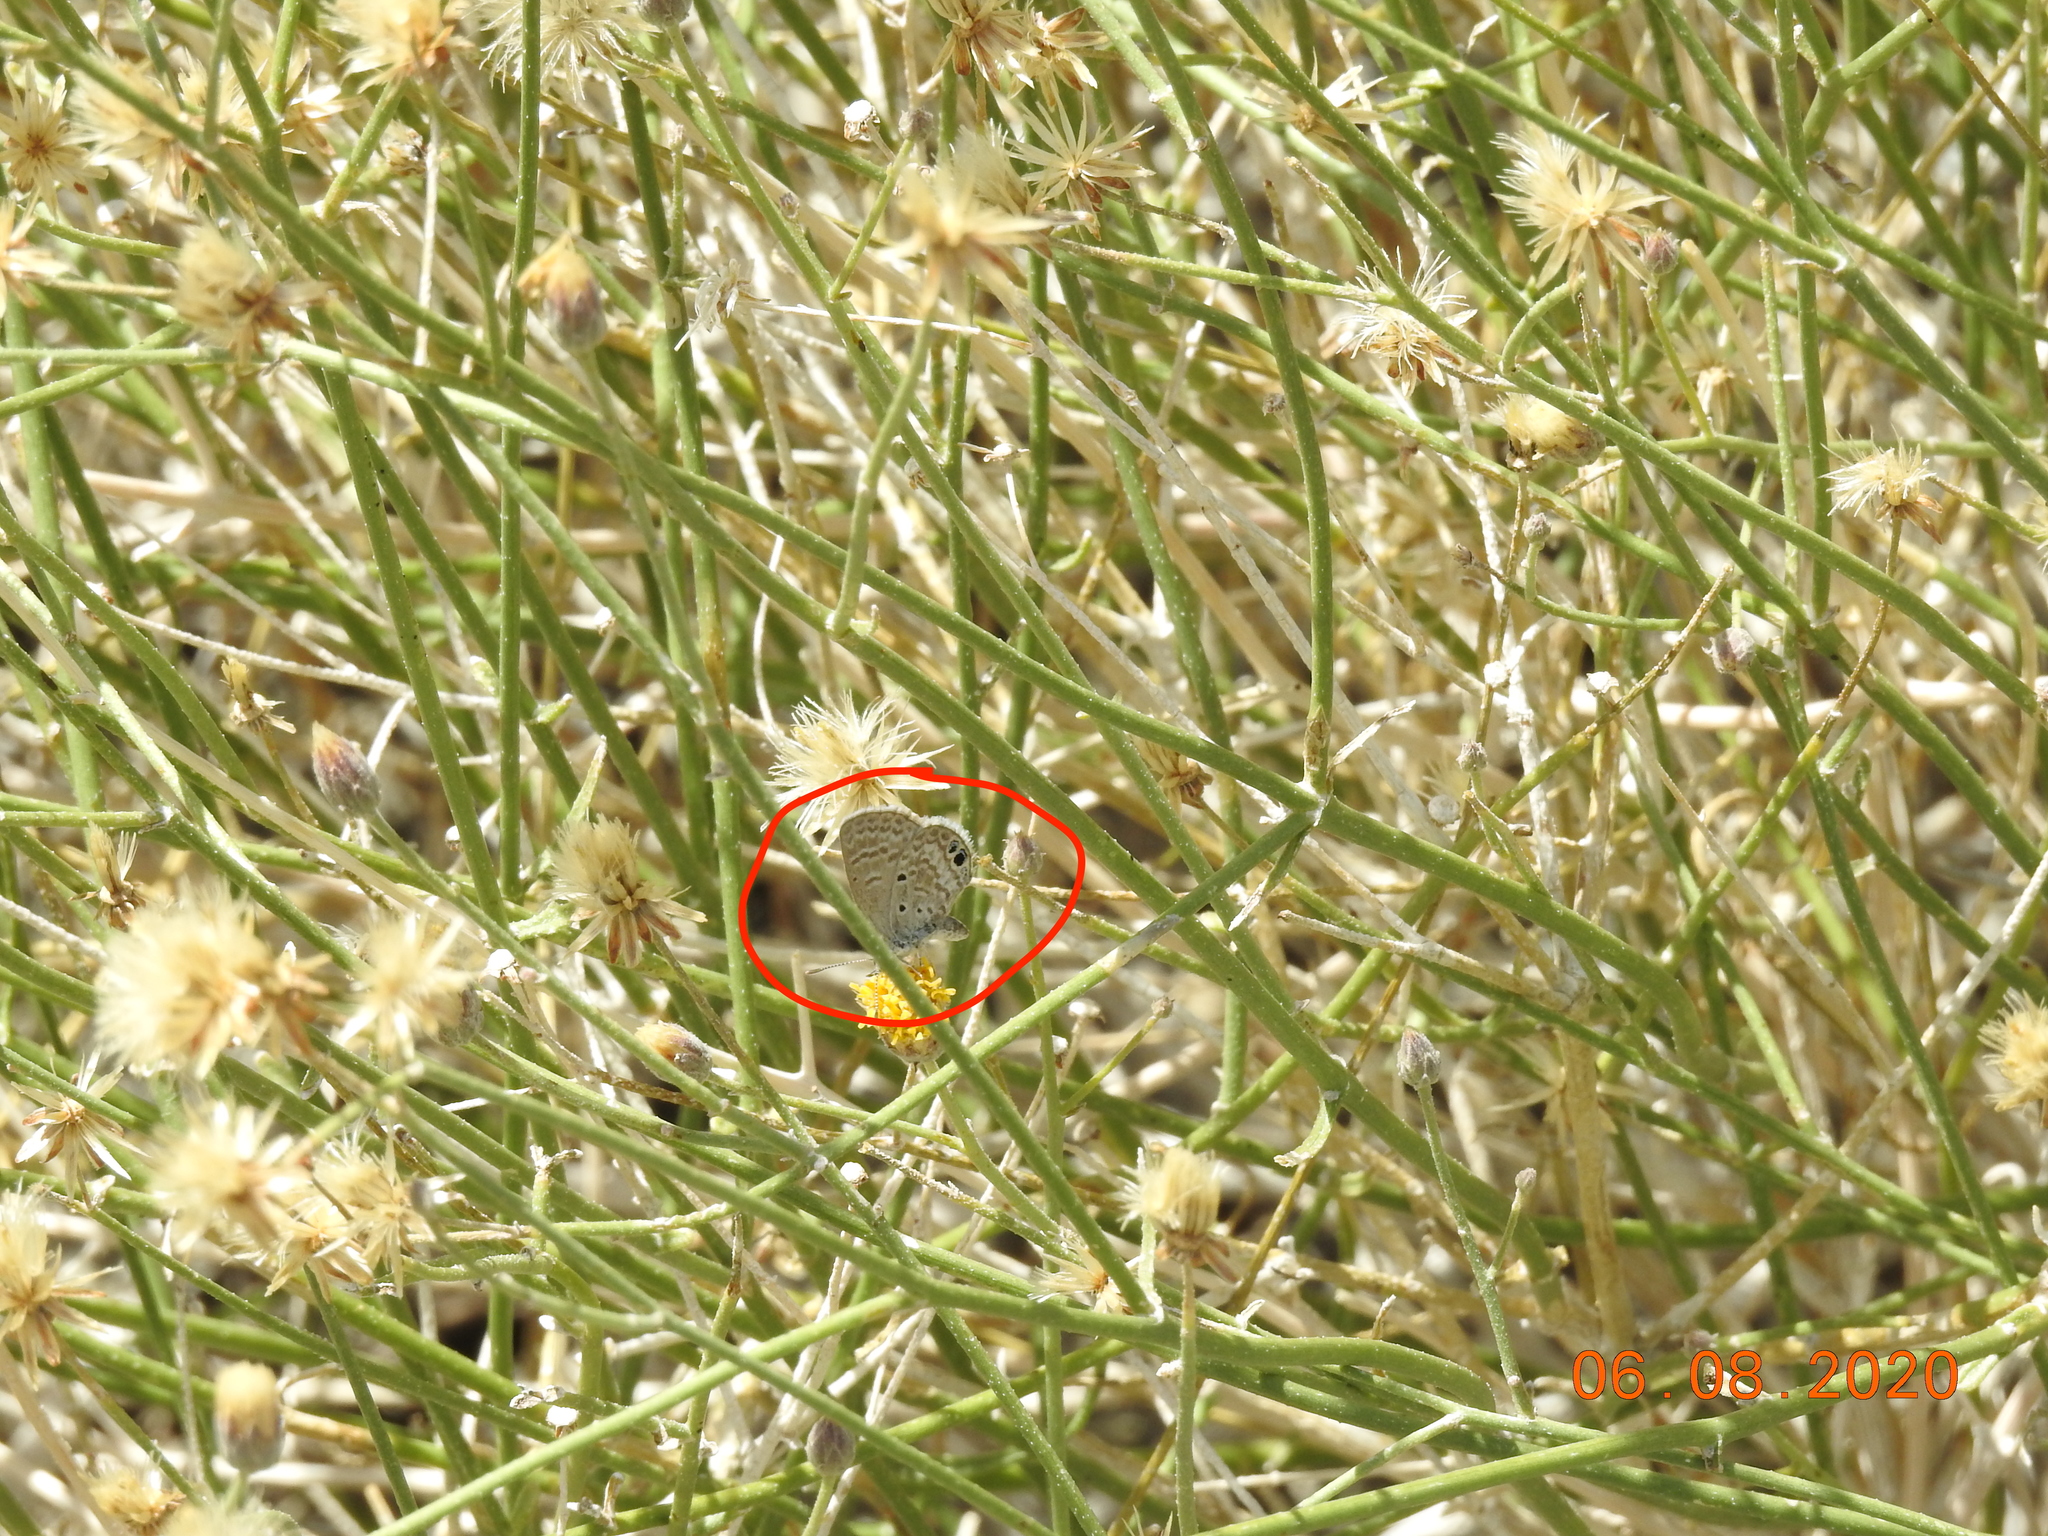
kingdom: Animalia
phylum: Arthropoda
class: Insecta
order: Lepidoptera
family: Lycaenidae
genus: Hemiargus
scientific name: Hemiargus ceraunus
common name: Ceraunus blue
